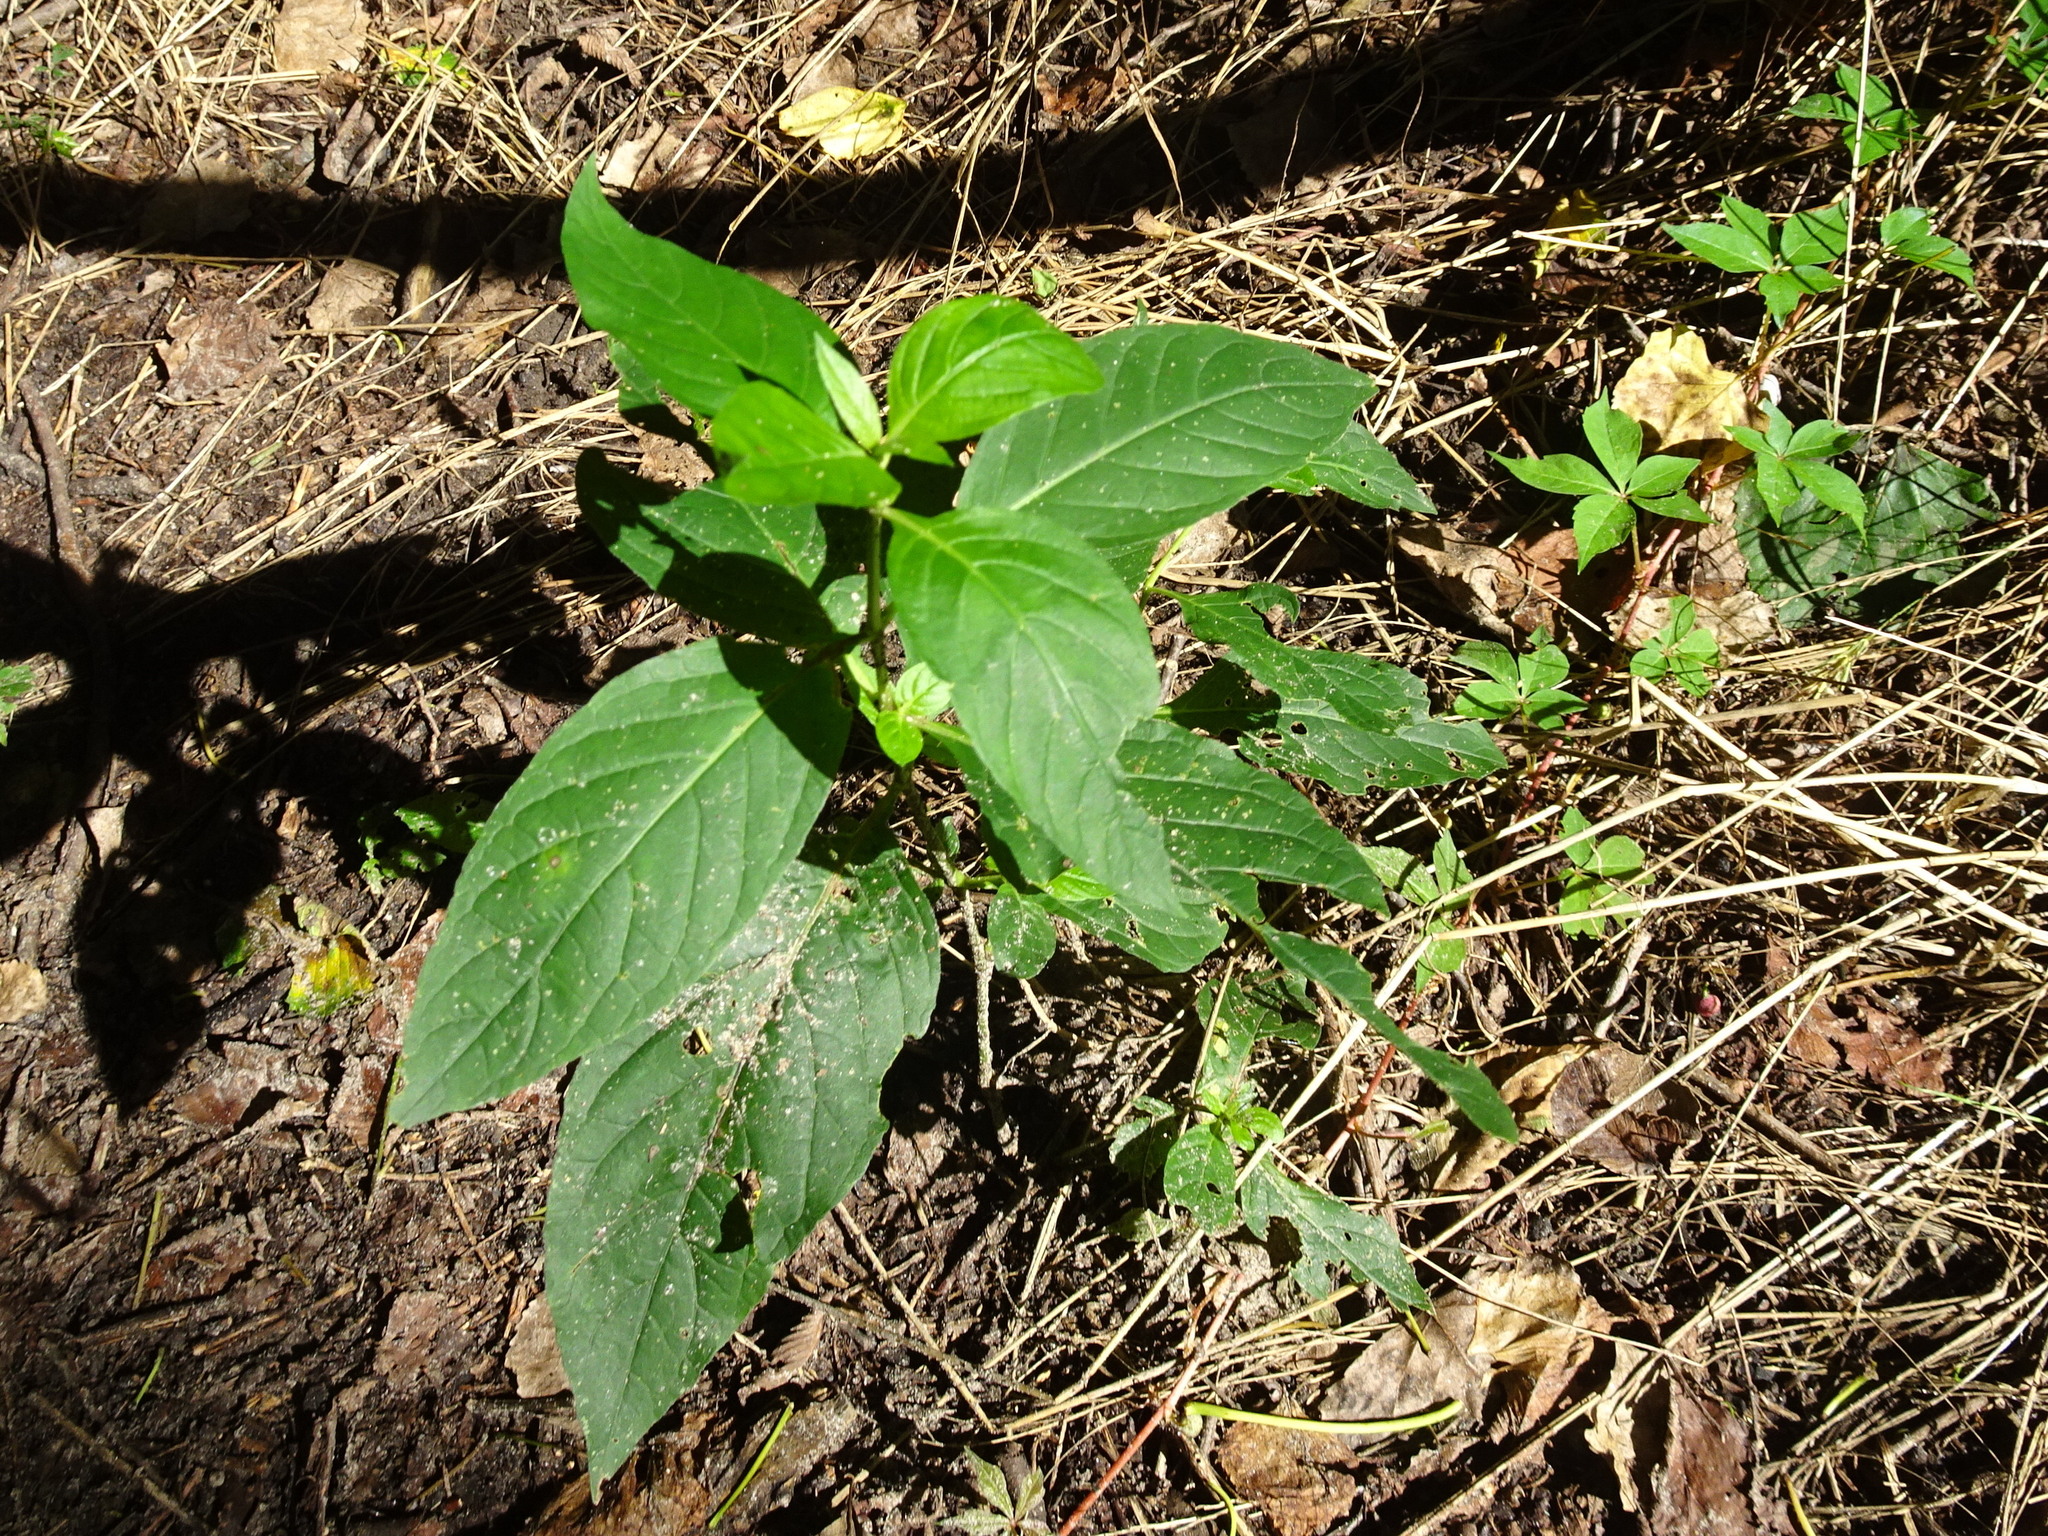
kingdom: Plantae
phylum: Tracheophyta
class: Magnoliopsida
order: Lamiales
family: Acanthaceae
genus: Ruellia
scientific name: Ruellia strepens
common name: Limestone wild petunia
